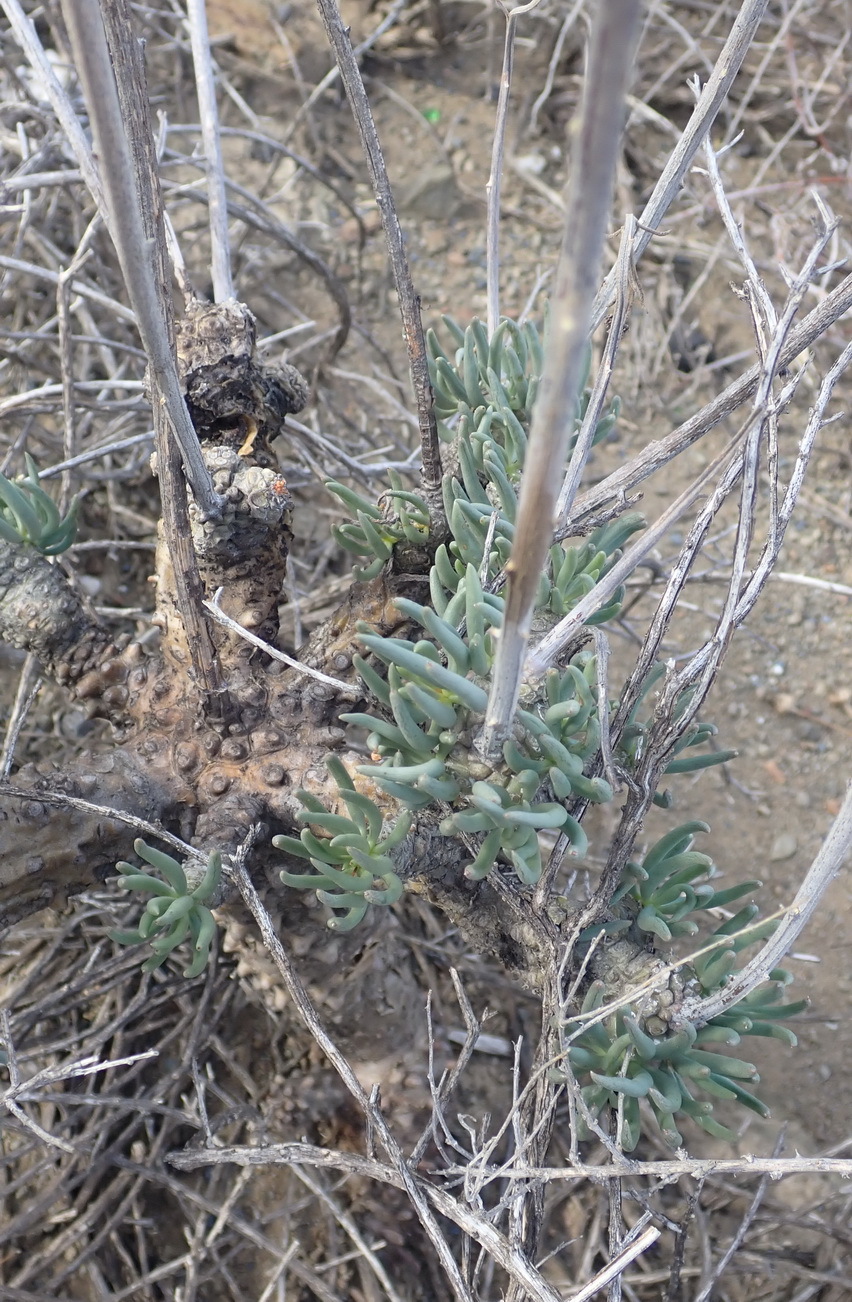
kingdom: Plantae
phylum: Tracheophyta
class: Magnoliopsida
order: Saxifragales
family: Crassulaceae
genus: Tylecodon
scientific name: Tylecodon wallichii
